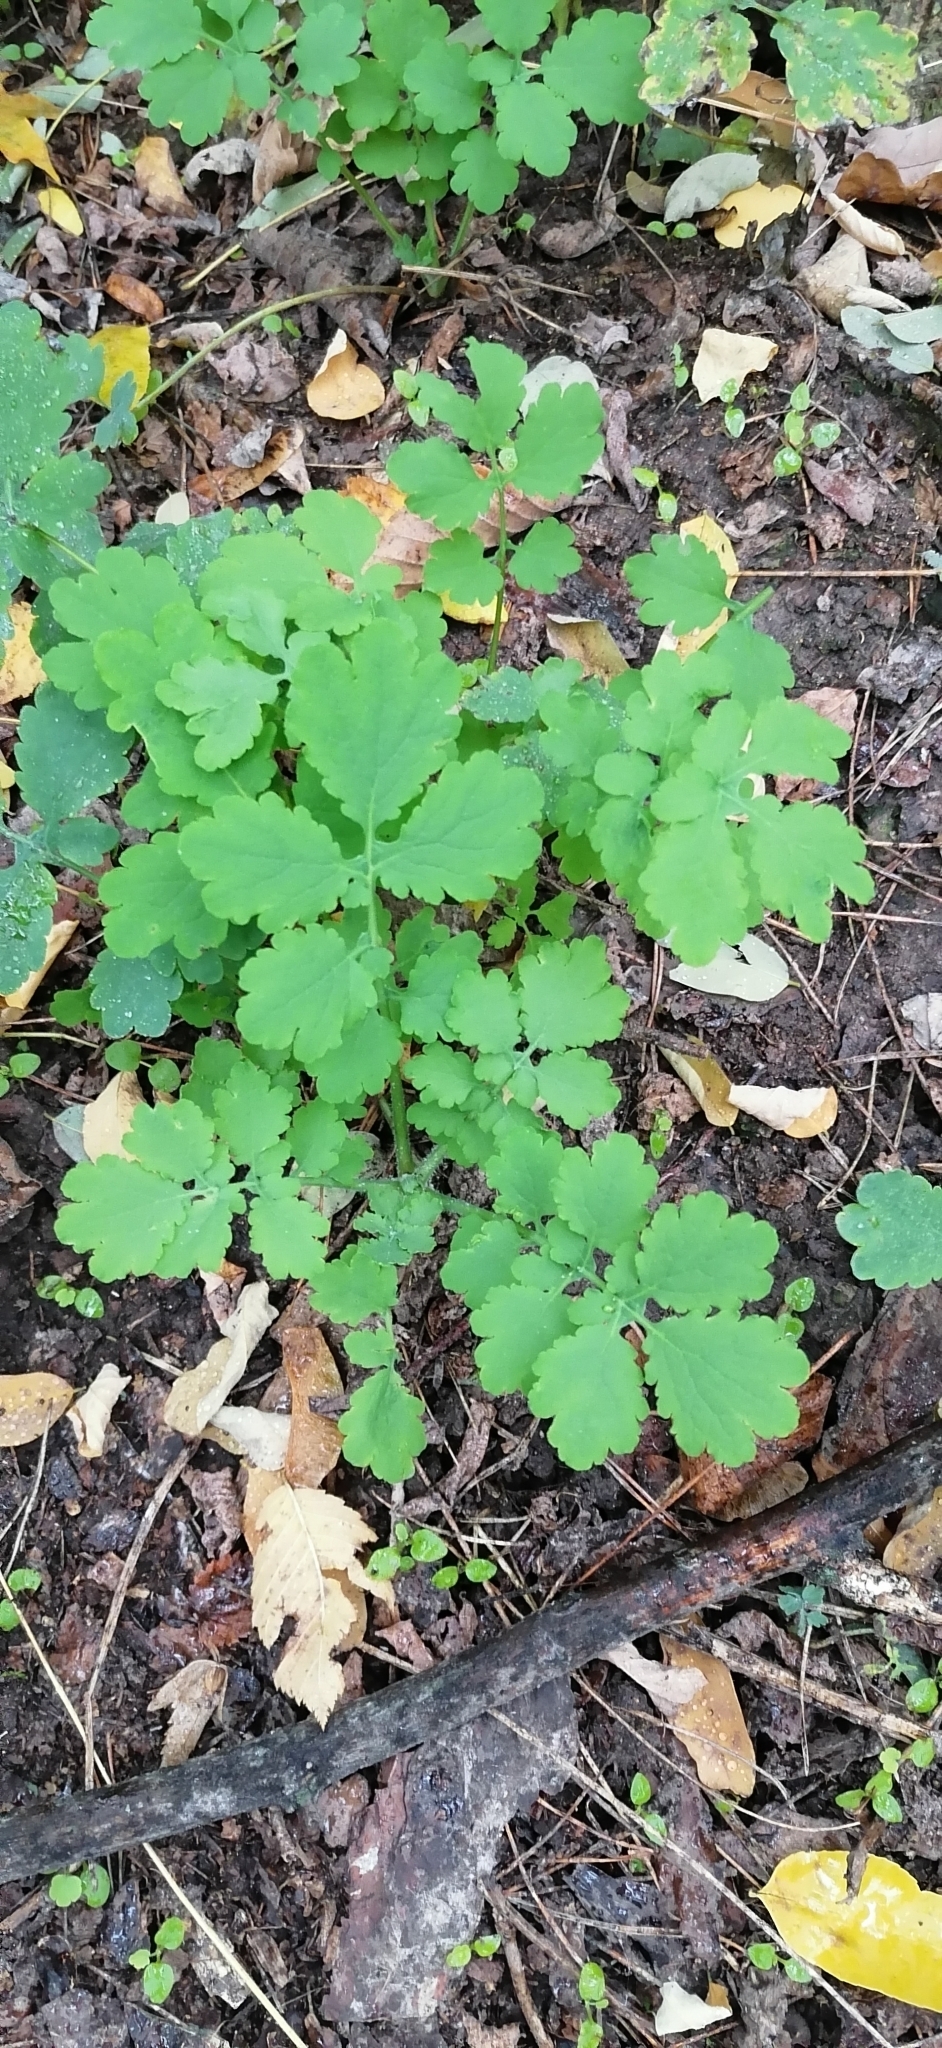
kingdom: Plantae
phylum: Tracheophyta
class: Magnoliopsida
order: Ranunculales
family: Papaveraceae
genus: Chelidonium
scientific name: Chelidonium majus
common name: Greater celandine
